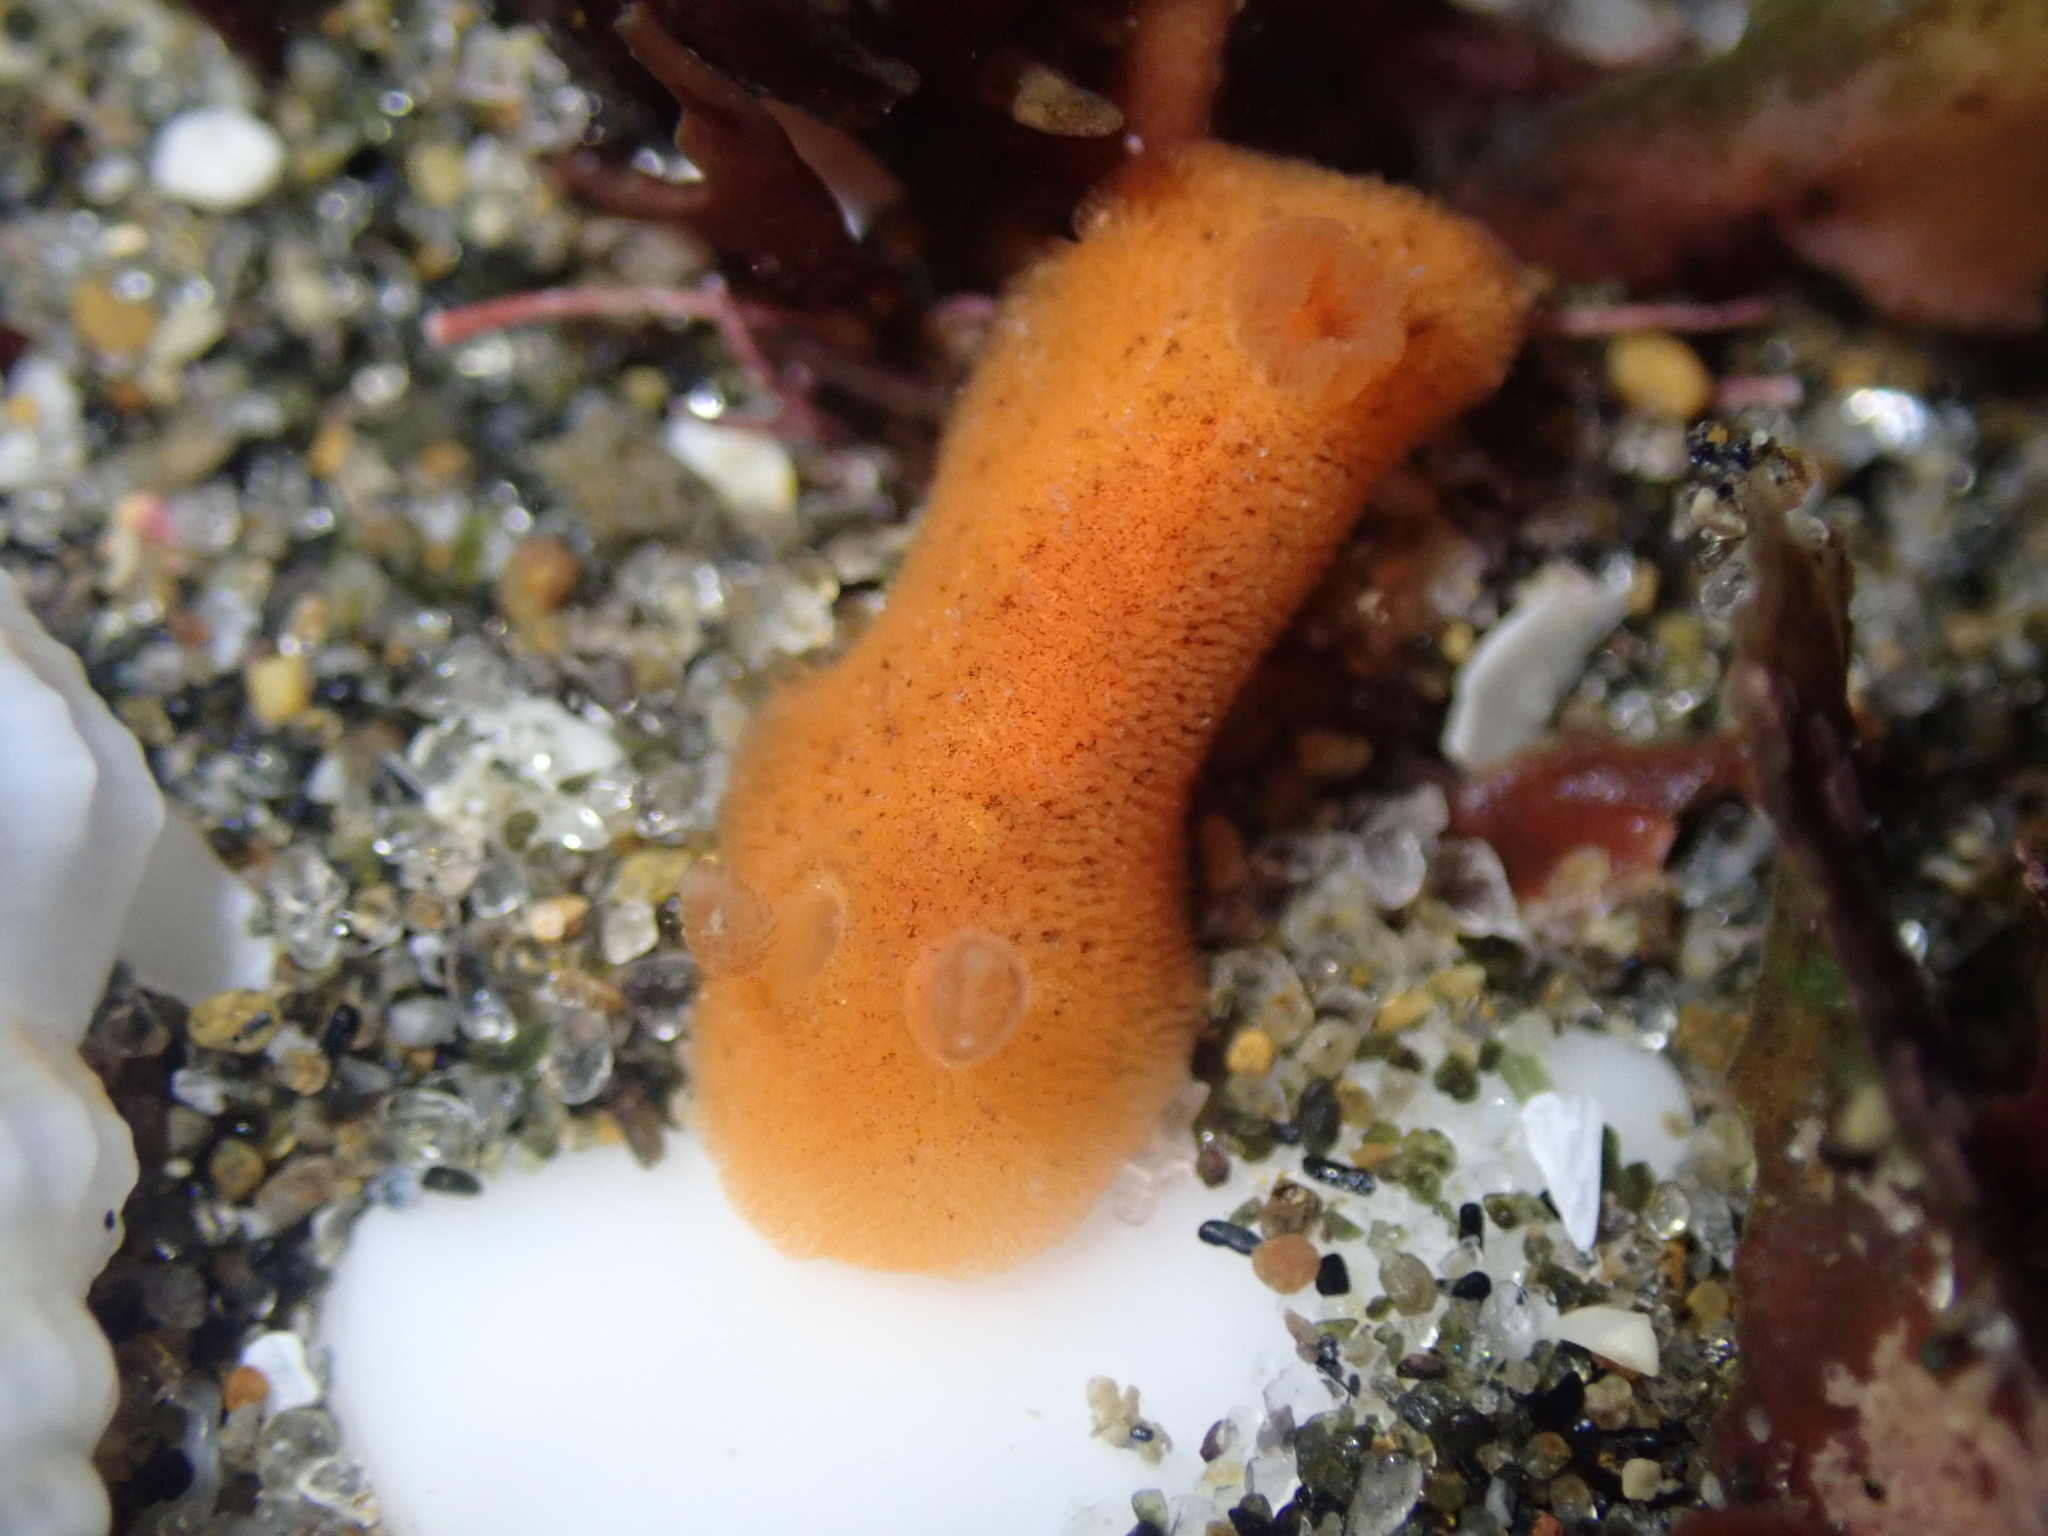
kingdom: Animalia
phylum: Mollusca
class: Gastropoda
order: Nudibranchia
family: Discodorididae
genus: Rostanga
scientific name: Rostanga muscula
